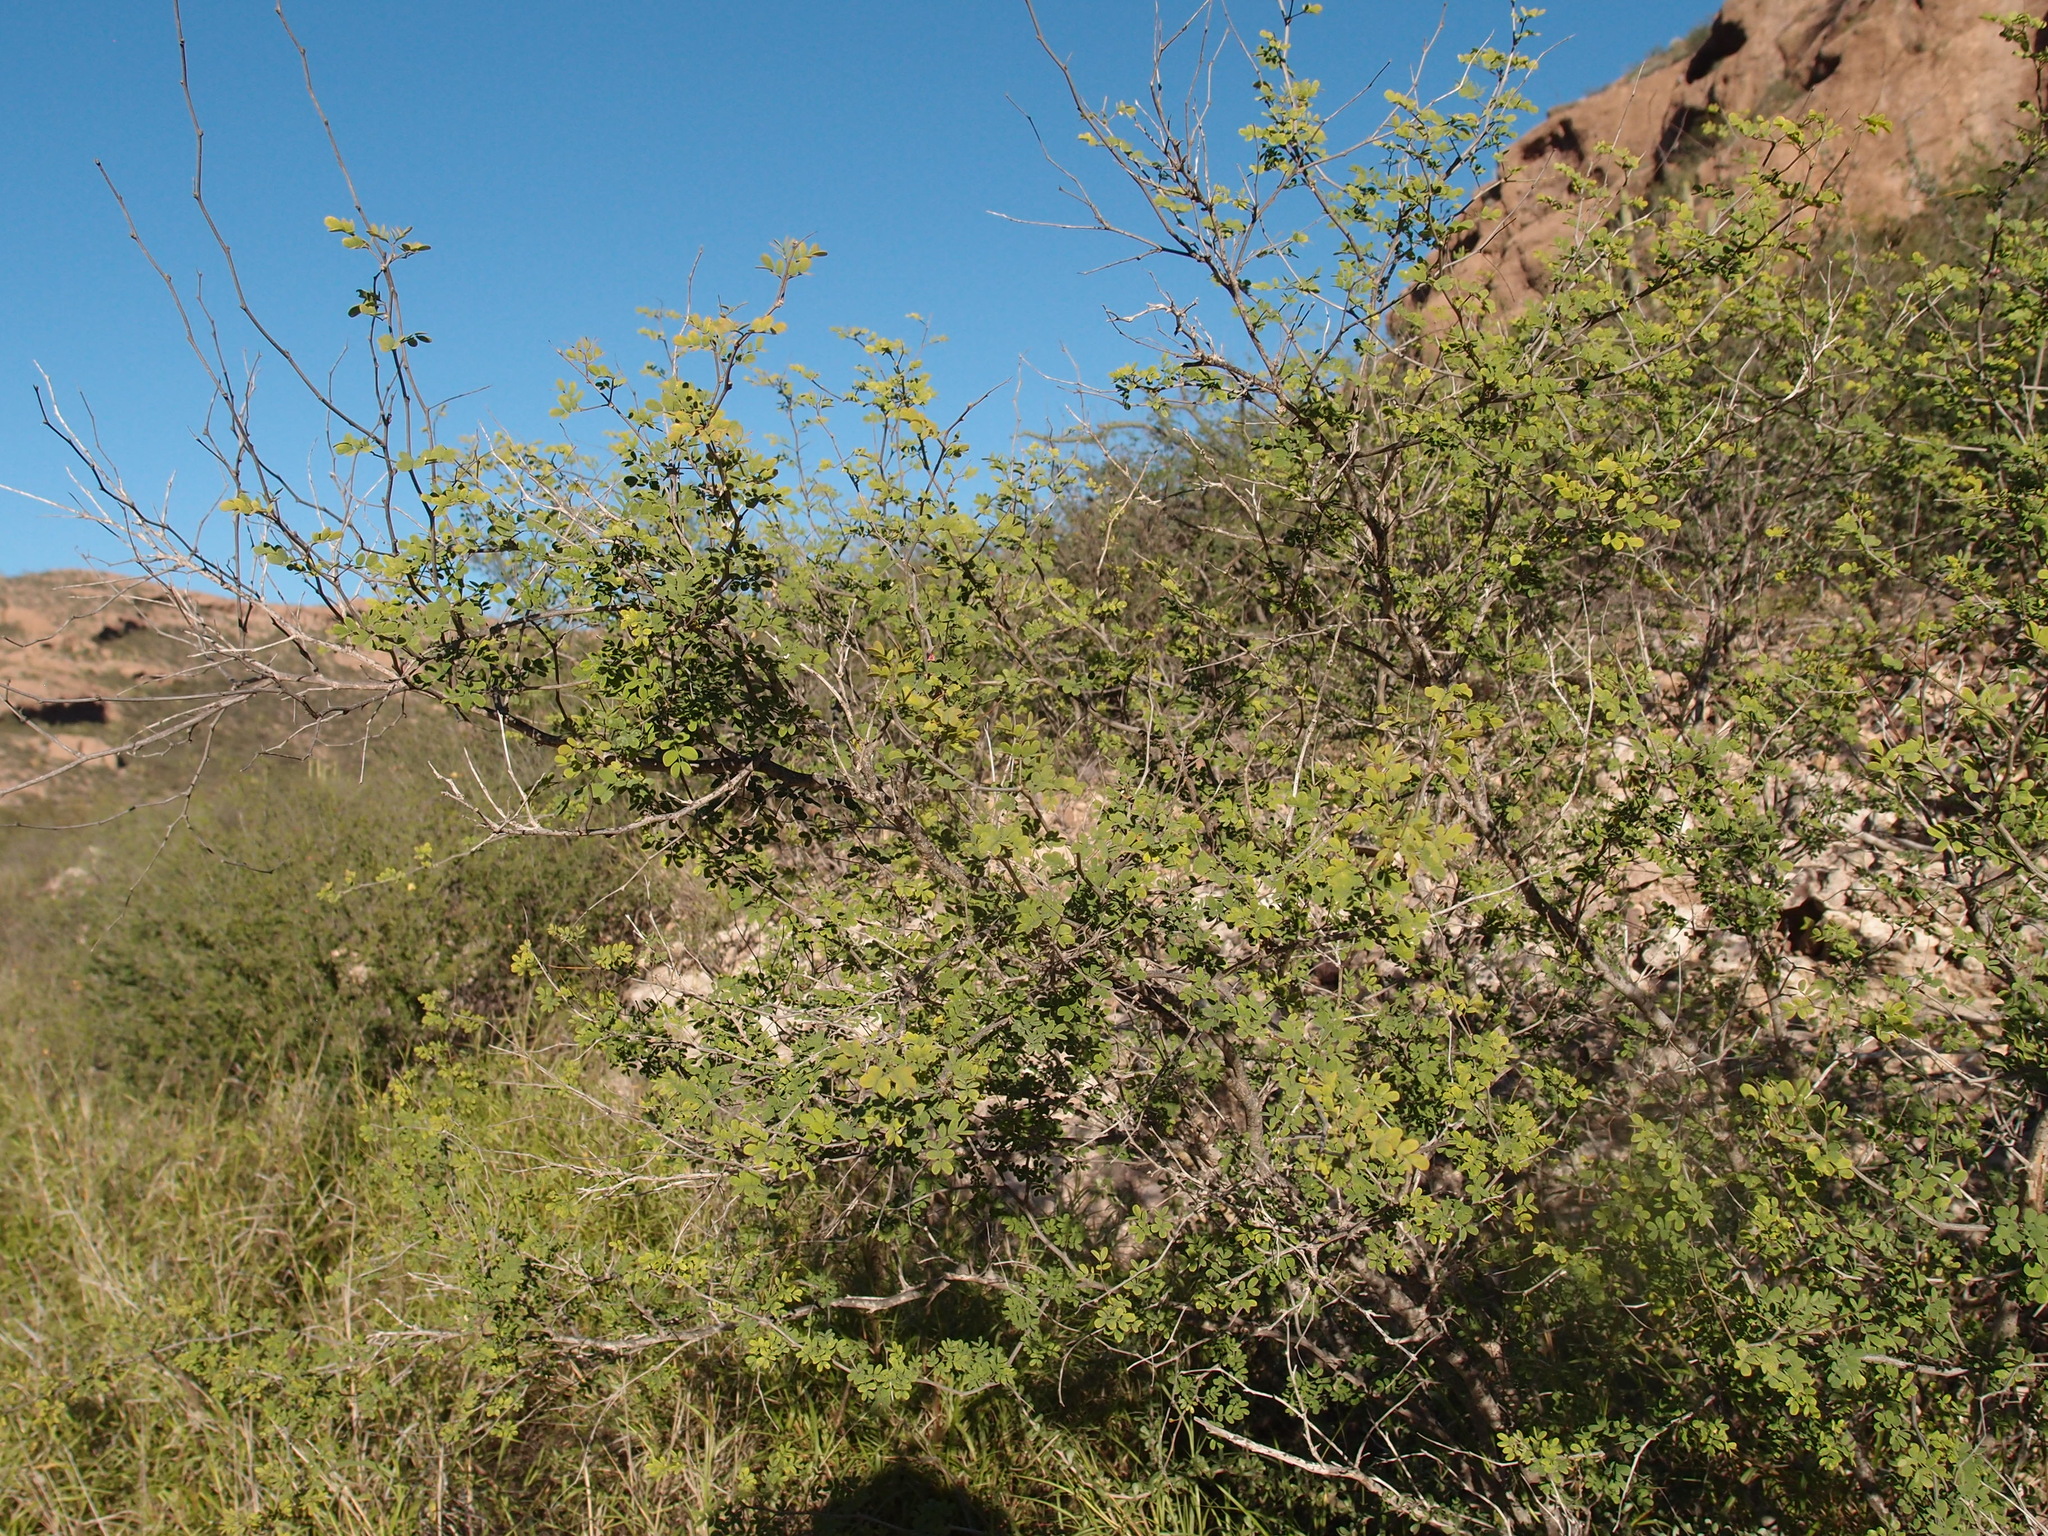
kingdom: Plantae
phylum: Tracheophyta
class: Magnoliopsida
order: Fabales
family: Fabaceae
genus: Mimosa
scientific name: Mimosa distachya
